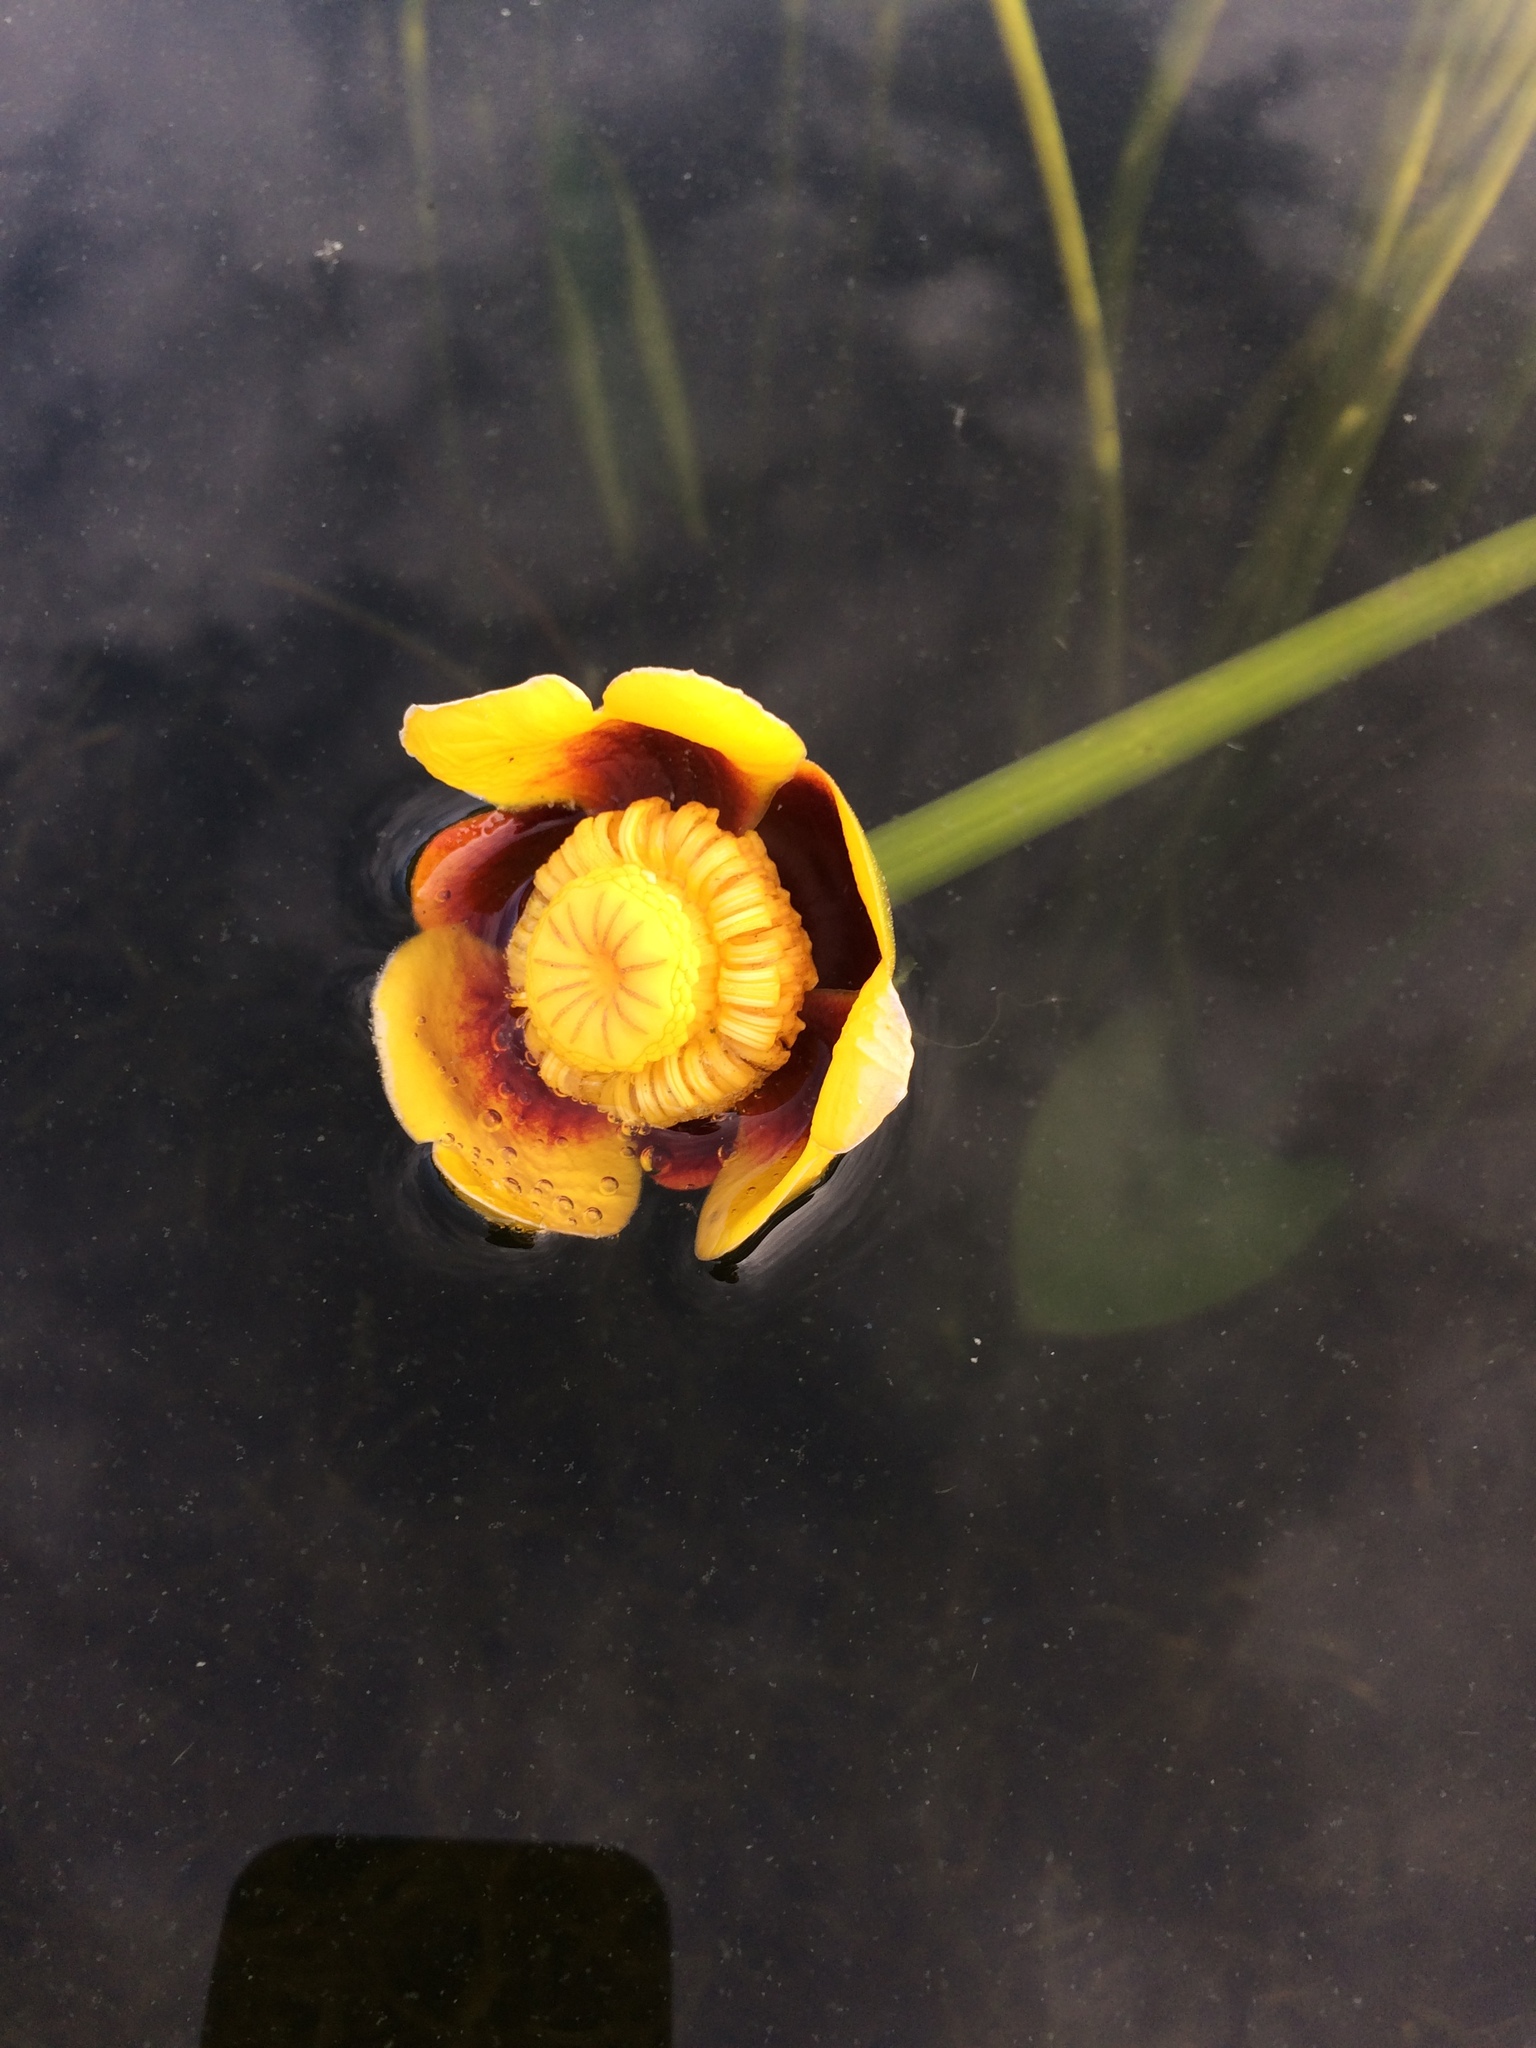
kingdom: Plantae
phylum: Tracheophyta
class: Magnoliopsida
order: Nymphaeales
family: Nymphaeaceae
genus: Nuphar
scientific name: Nuphar variegata
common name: Beaver-root
